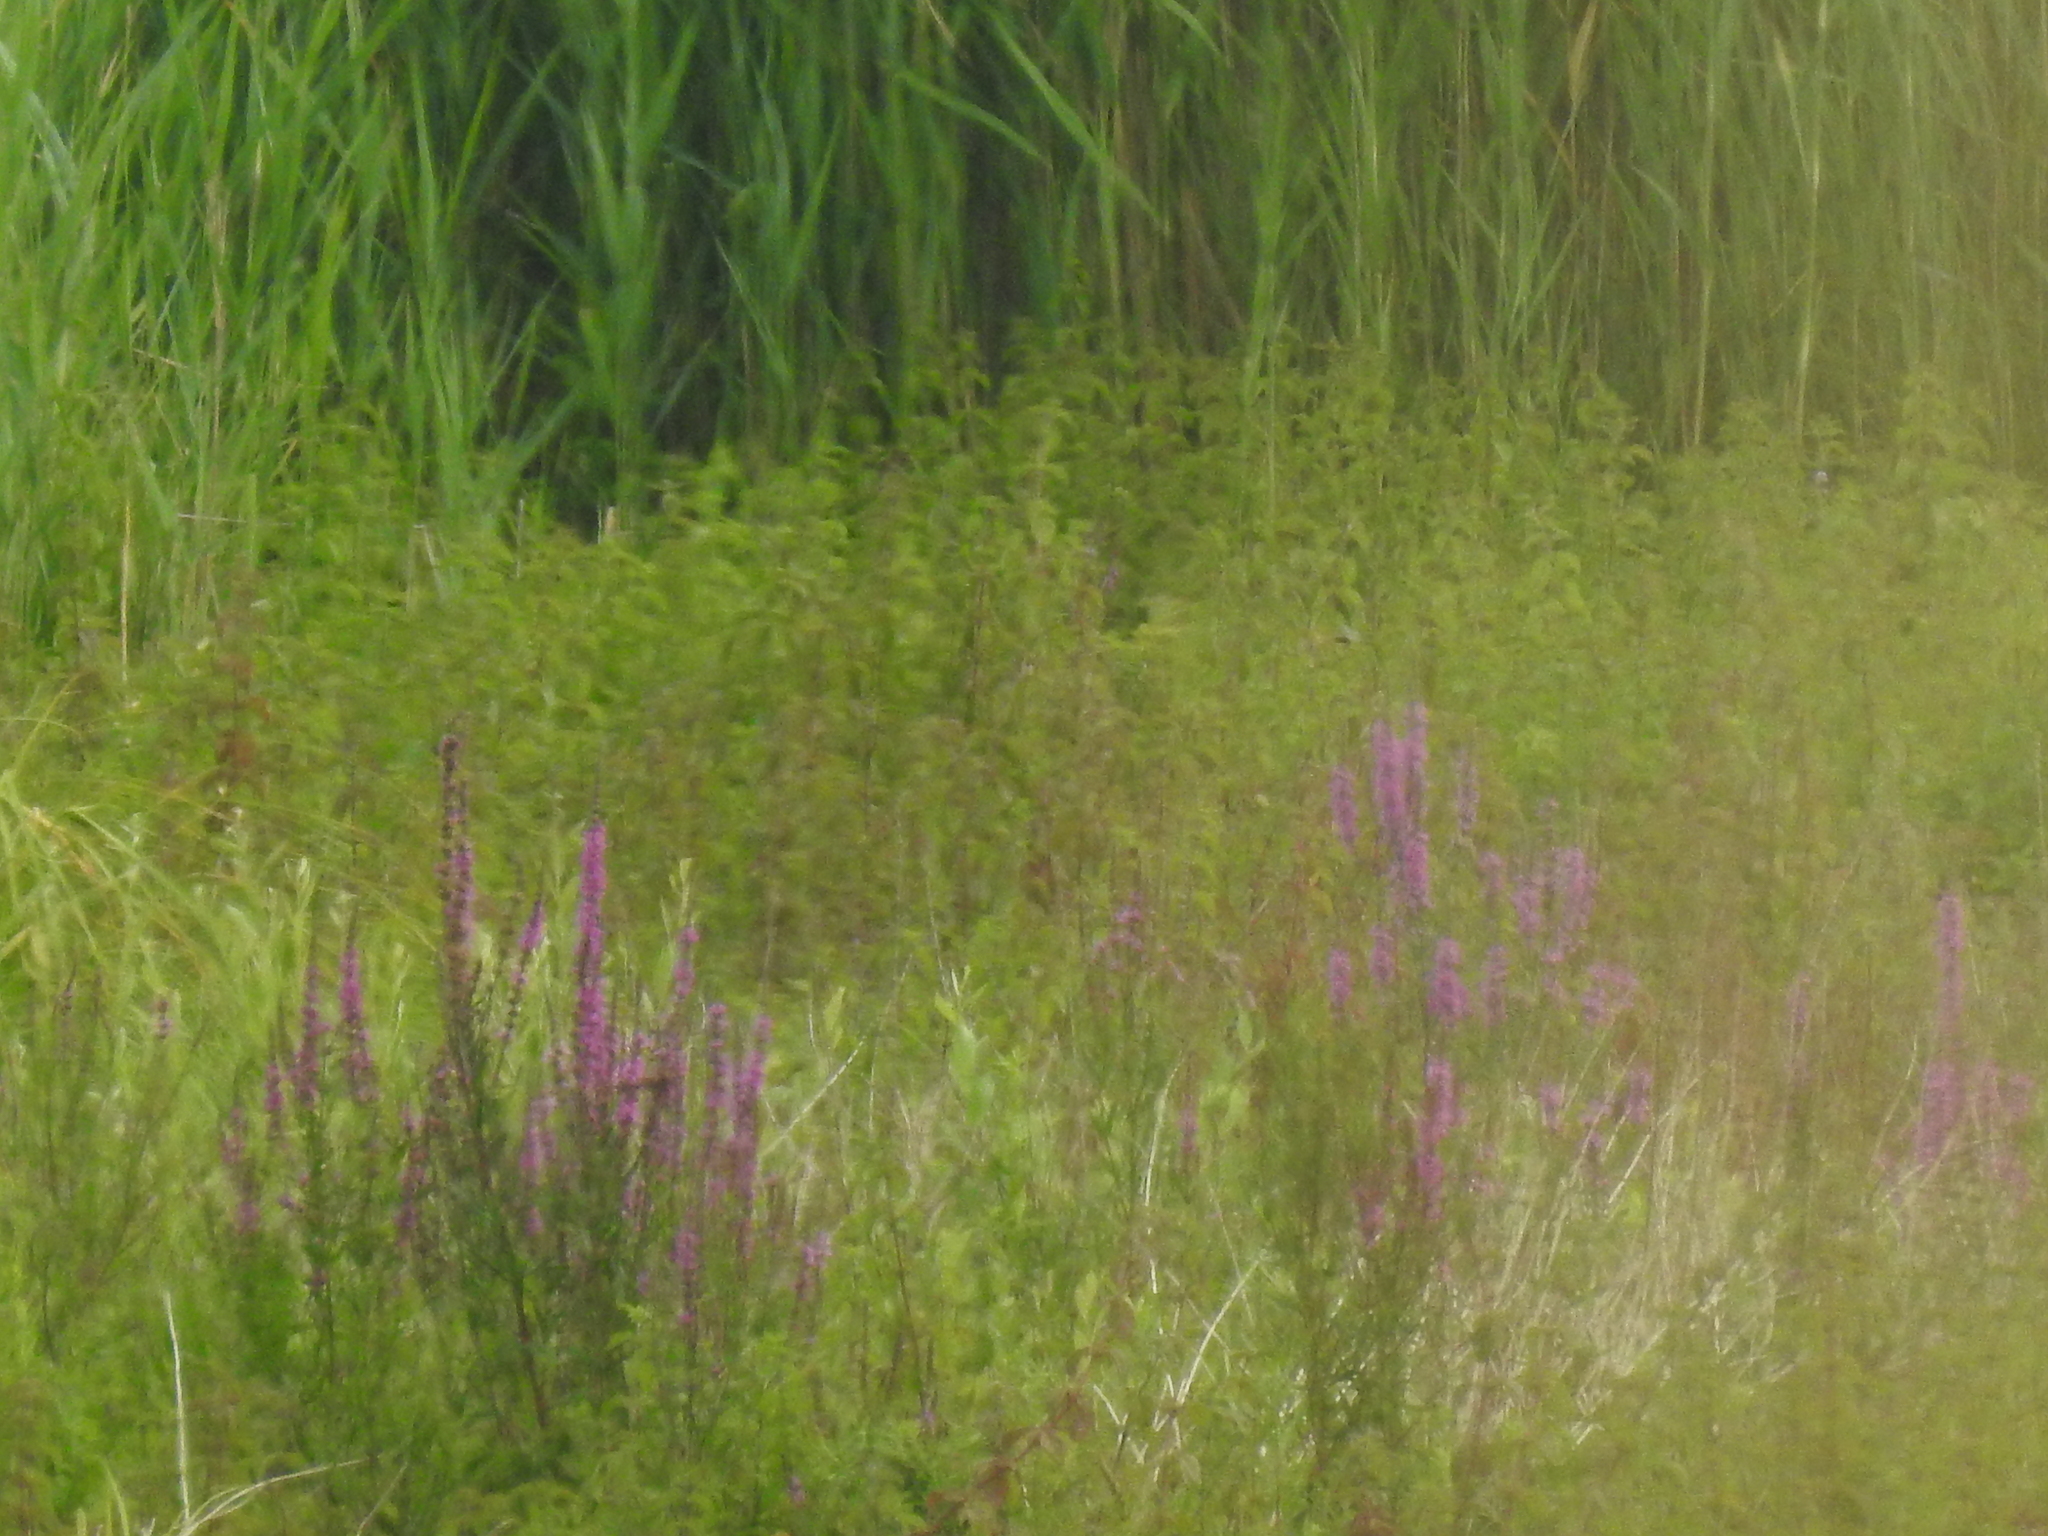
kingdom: Plantae
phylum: Tracheophyta
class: Magnoliopsida
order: Myrtales
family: Lythraceae
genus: Lythrum
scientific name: Lythrum salicaria
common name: Purple loosestrife
